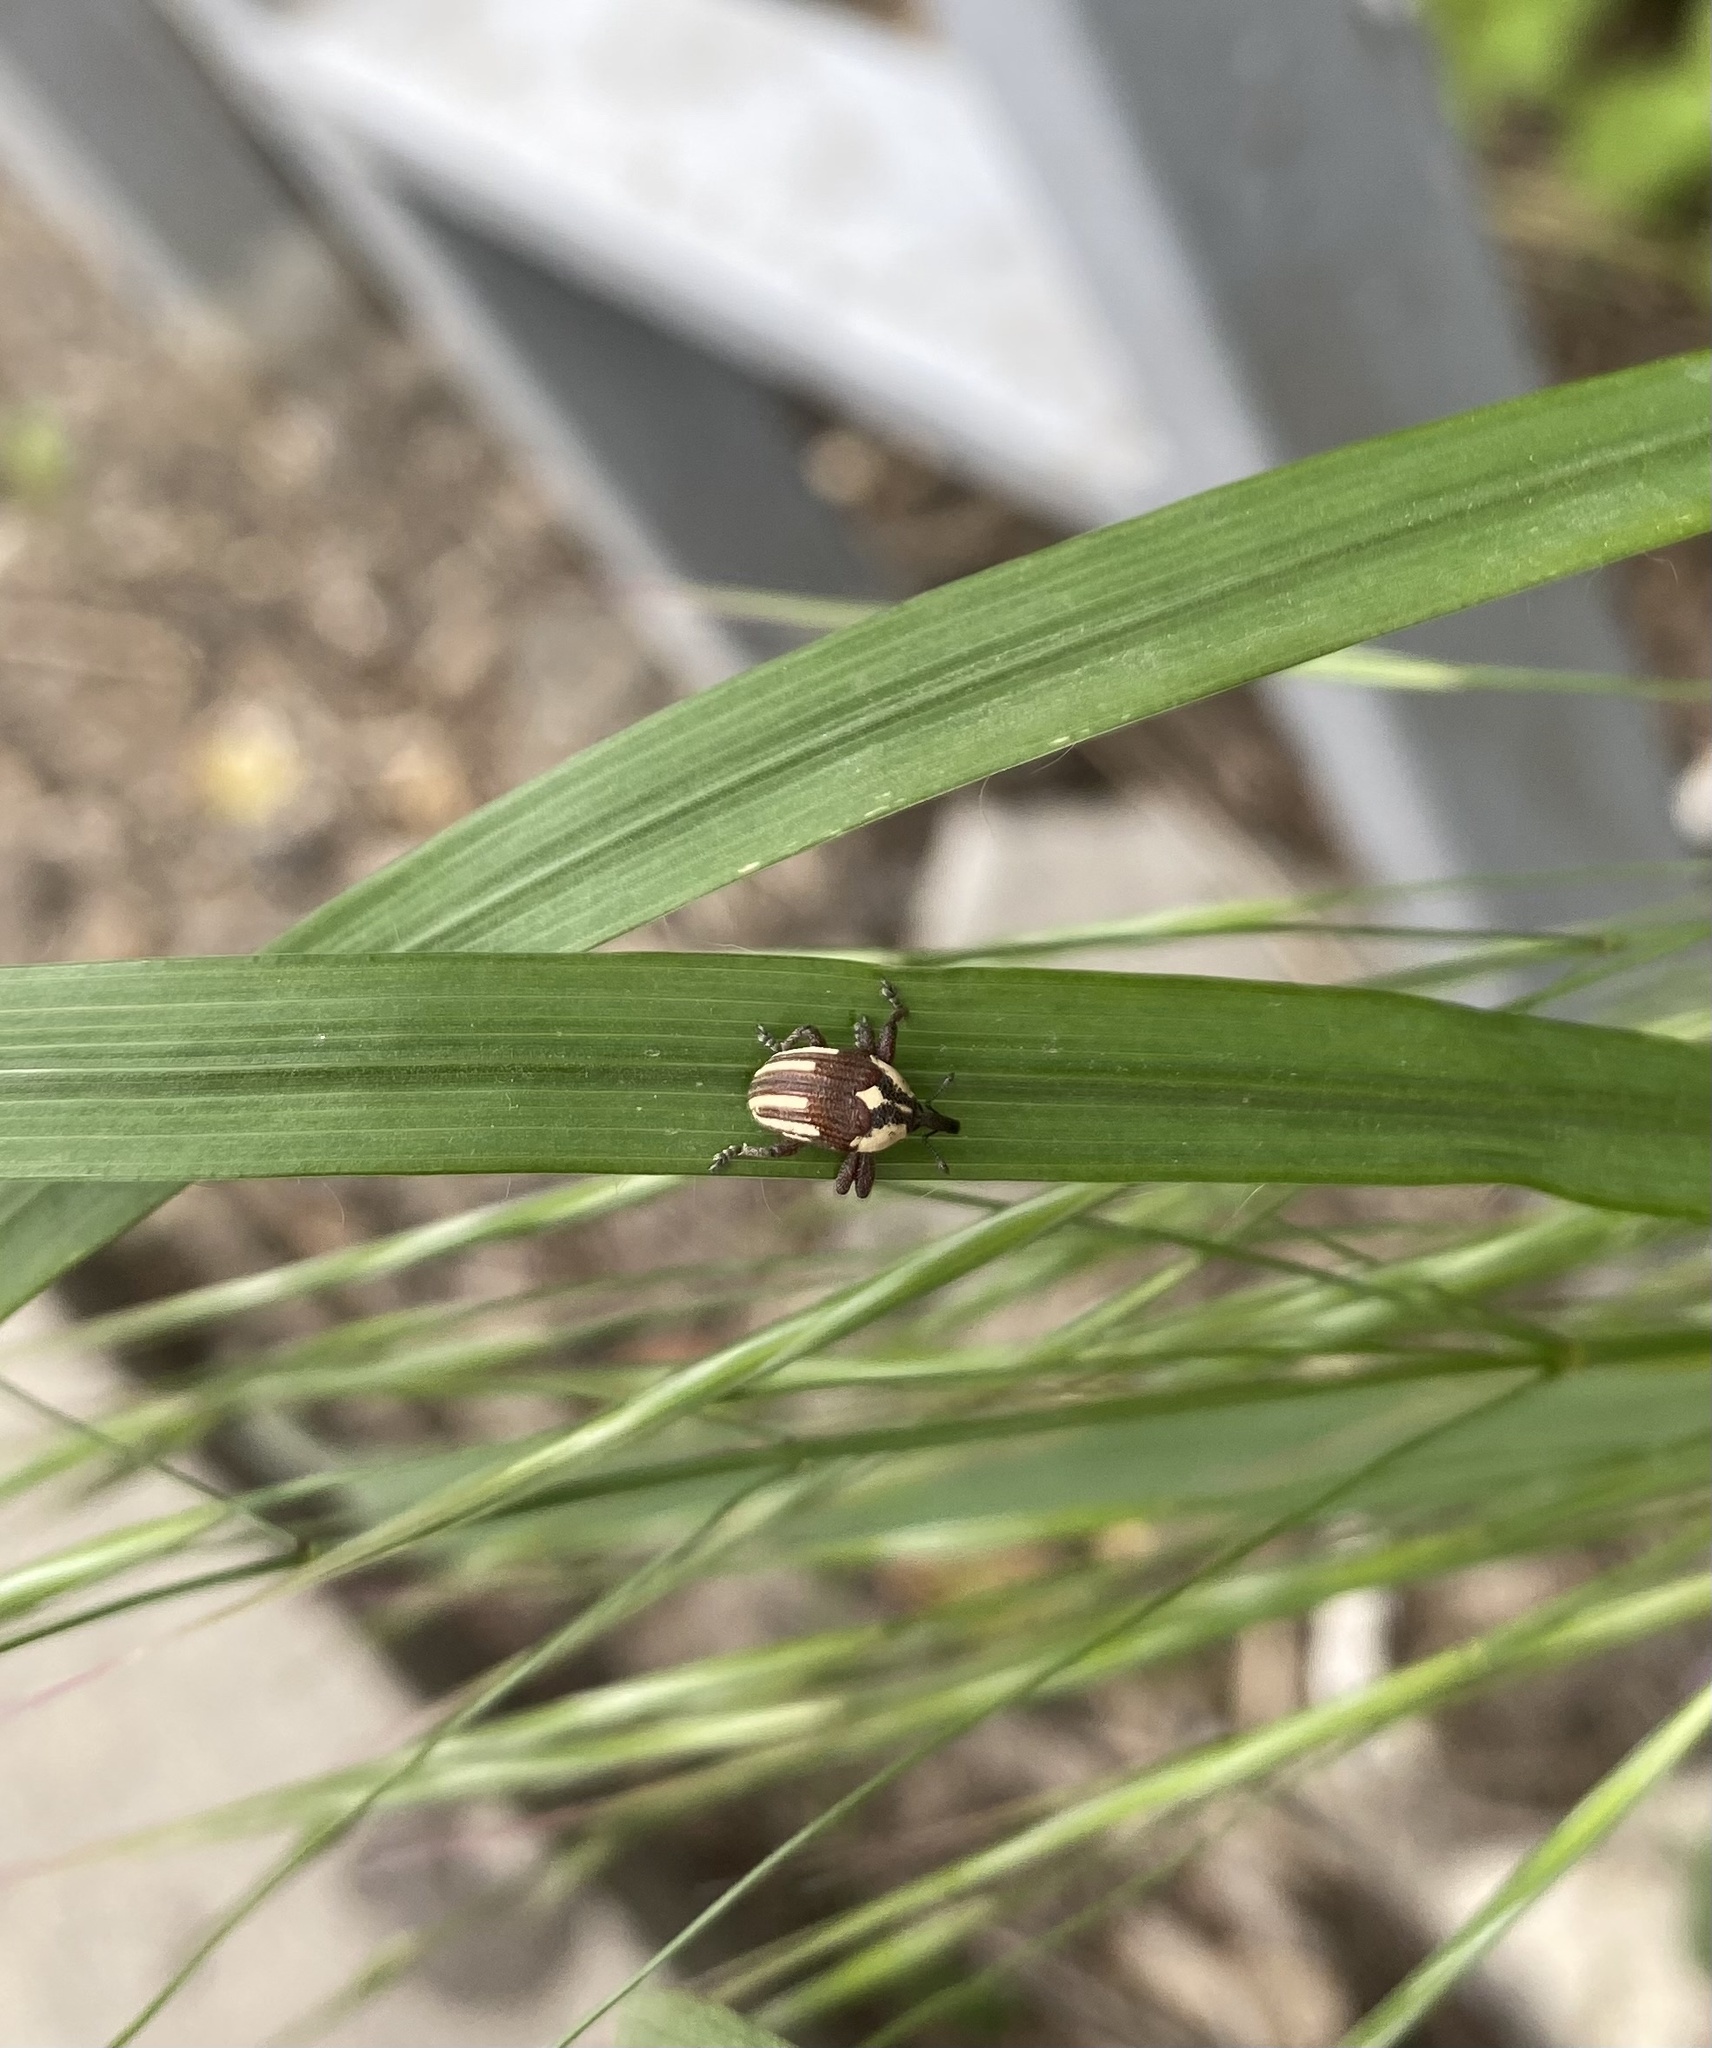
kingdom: Animalia
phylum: Arthropoda
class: Insecta
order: Coleoptera
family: Curculionidae
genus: Sternuchopsis
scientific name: Sternuchopsis
